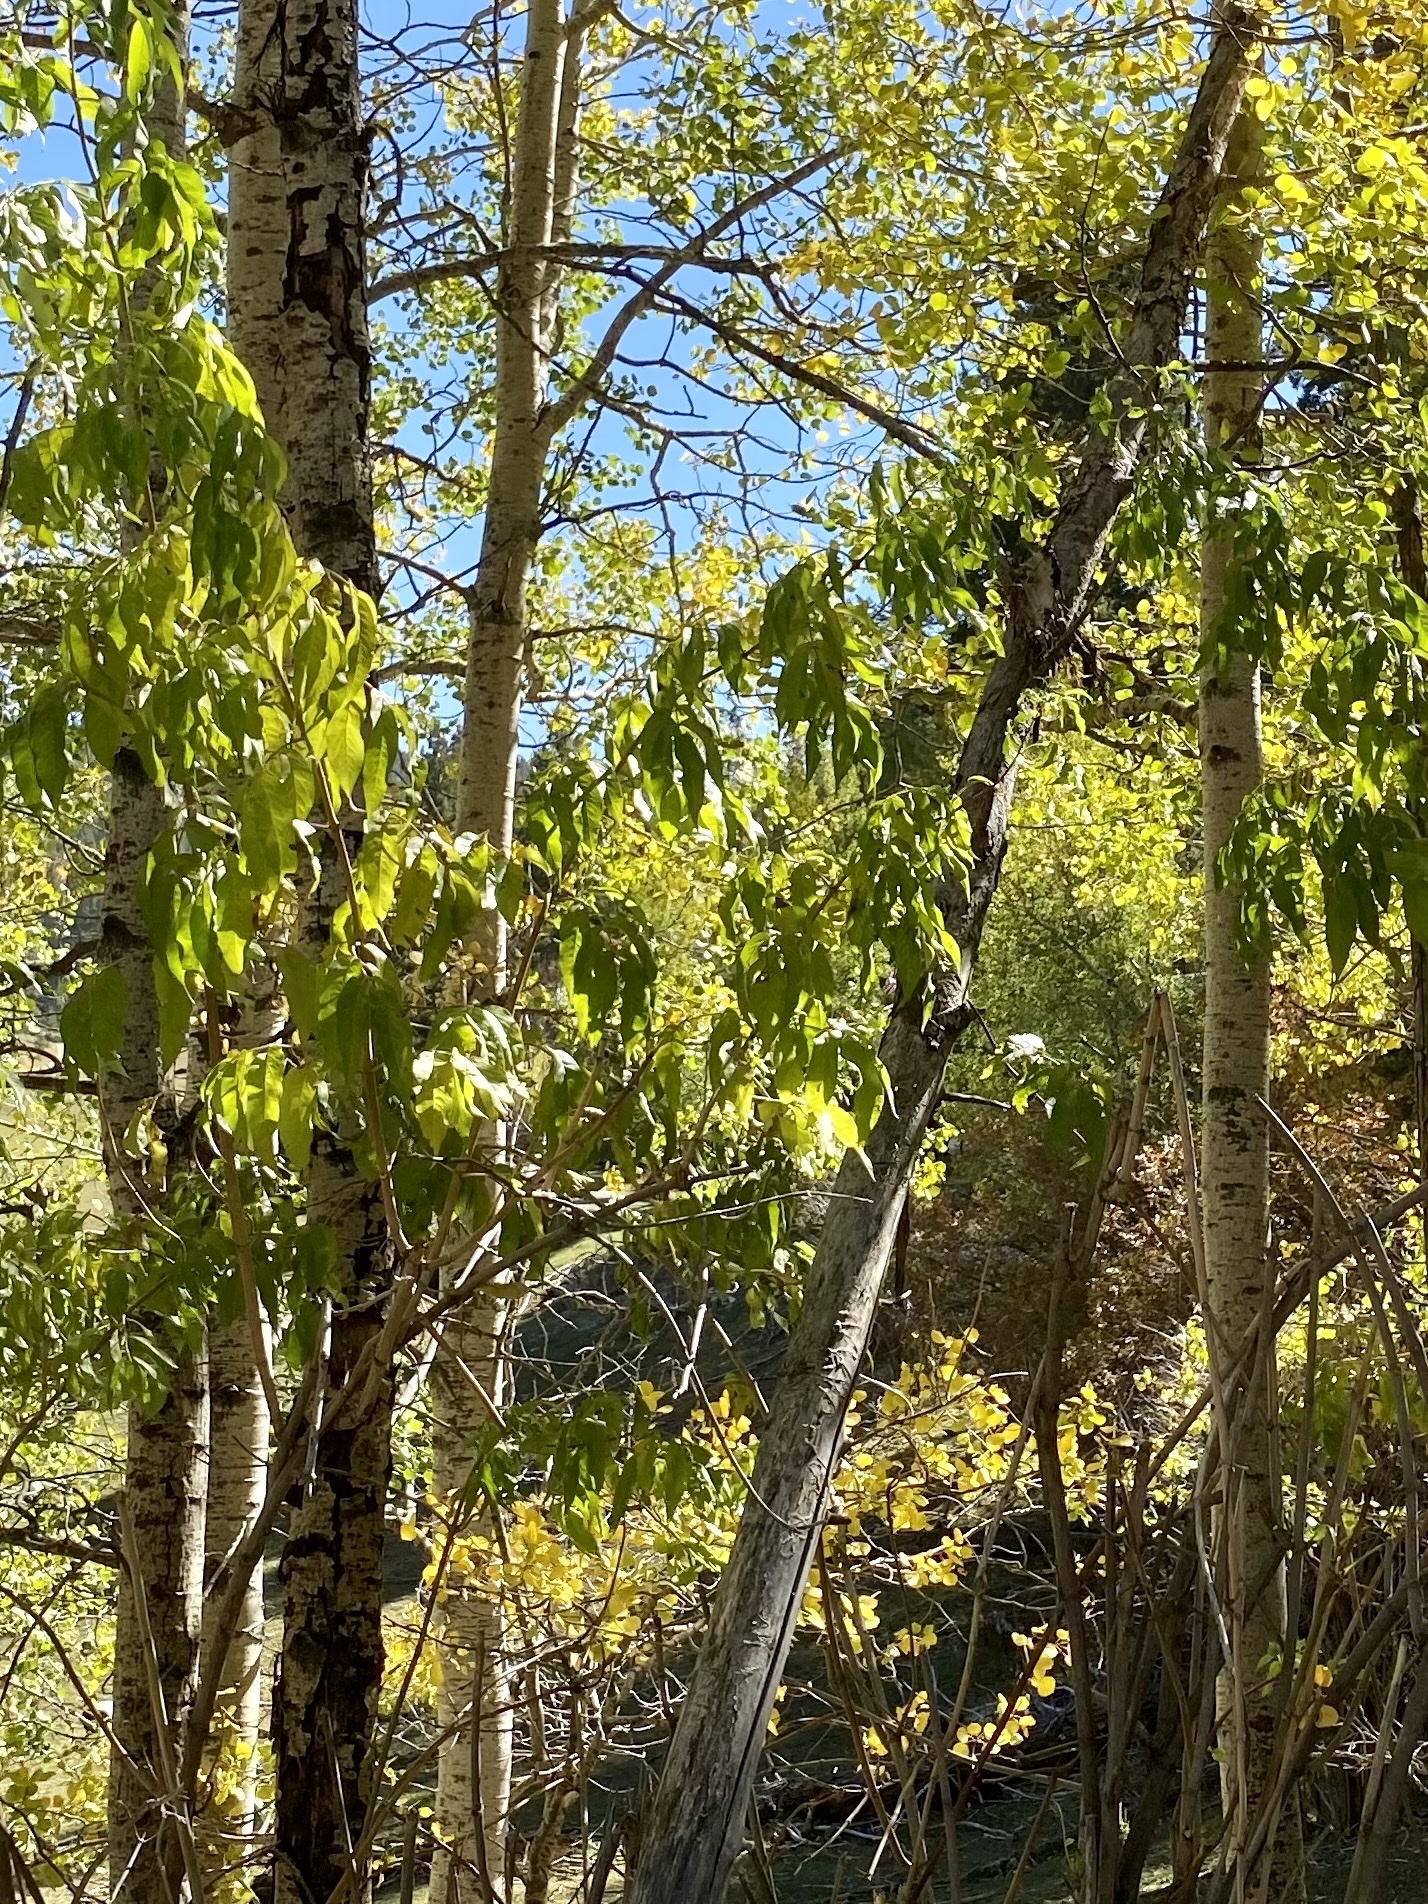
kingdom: Plantae
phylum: Tracheophyta
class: Magnoliopsida
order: Dipsacales
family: Viburnaceae
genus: Sambucus
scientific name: Sambucus cerulea
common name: Blue elder
